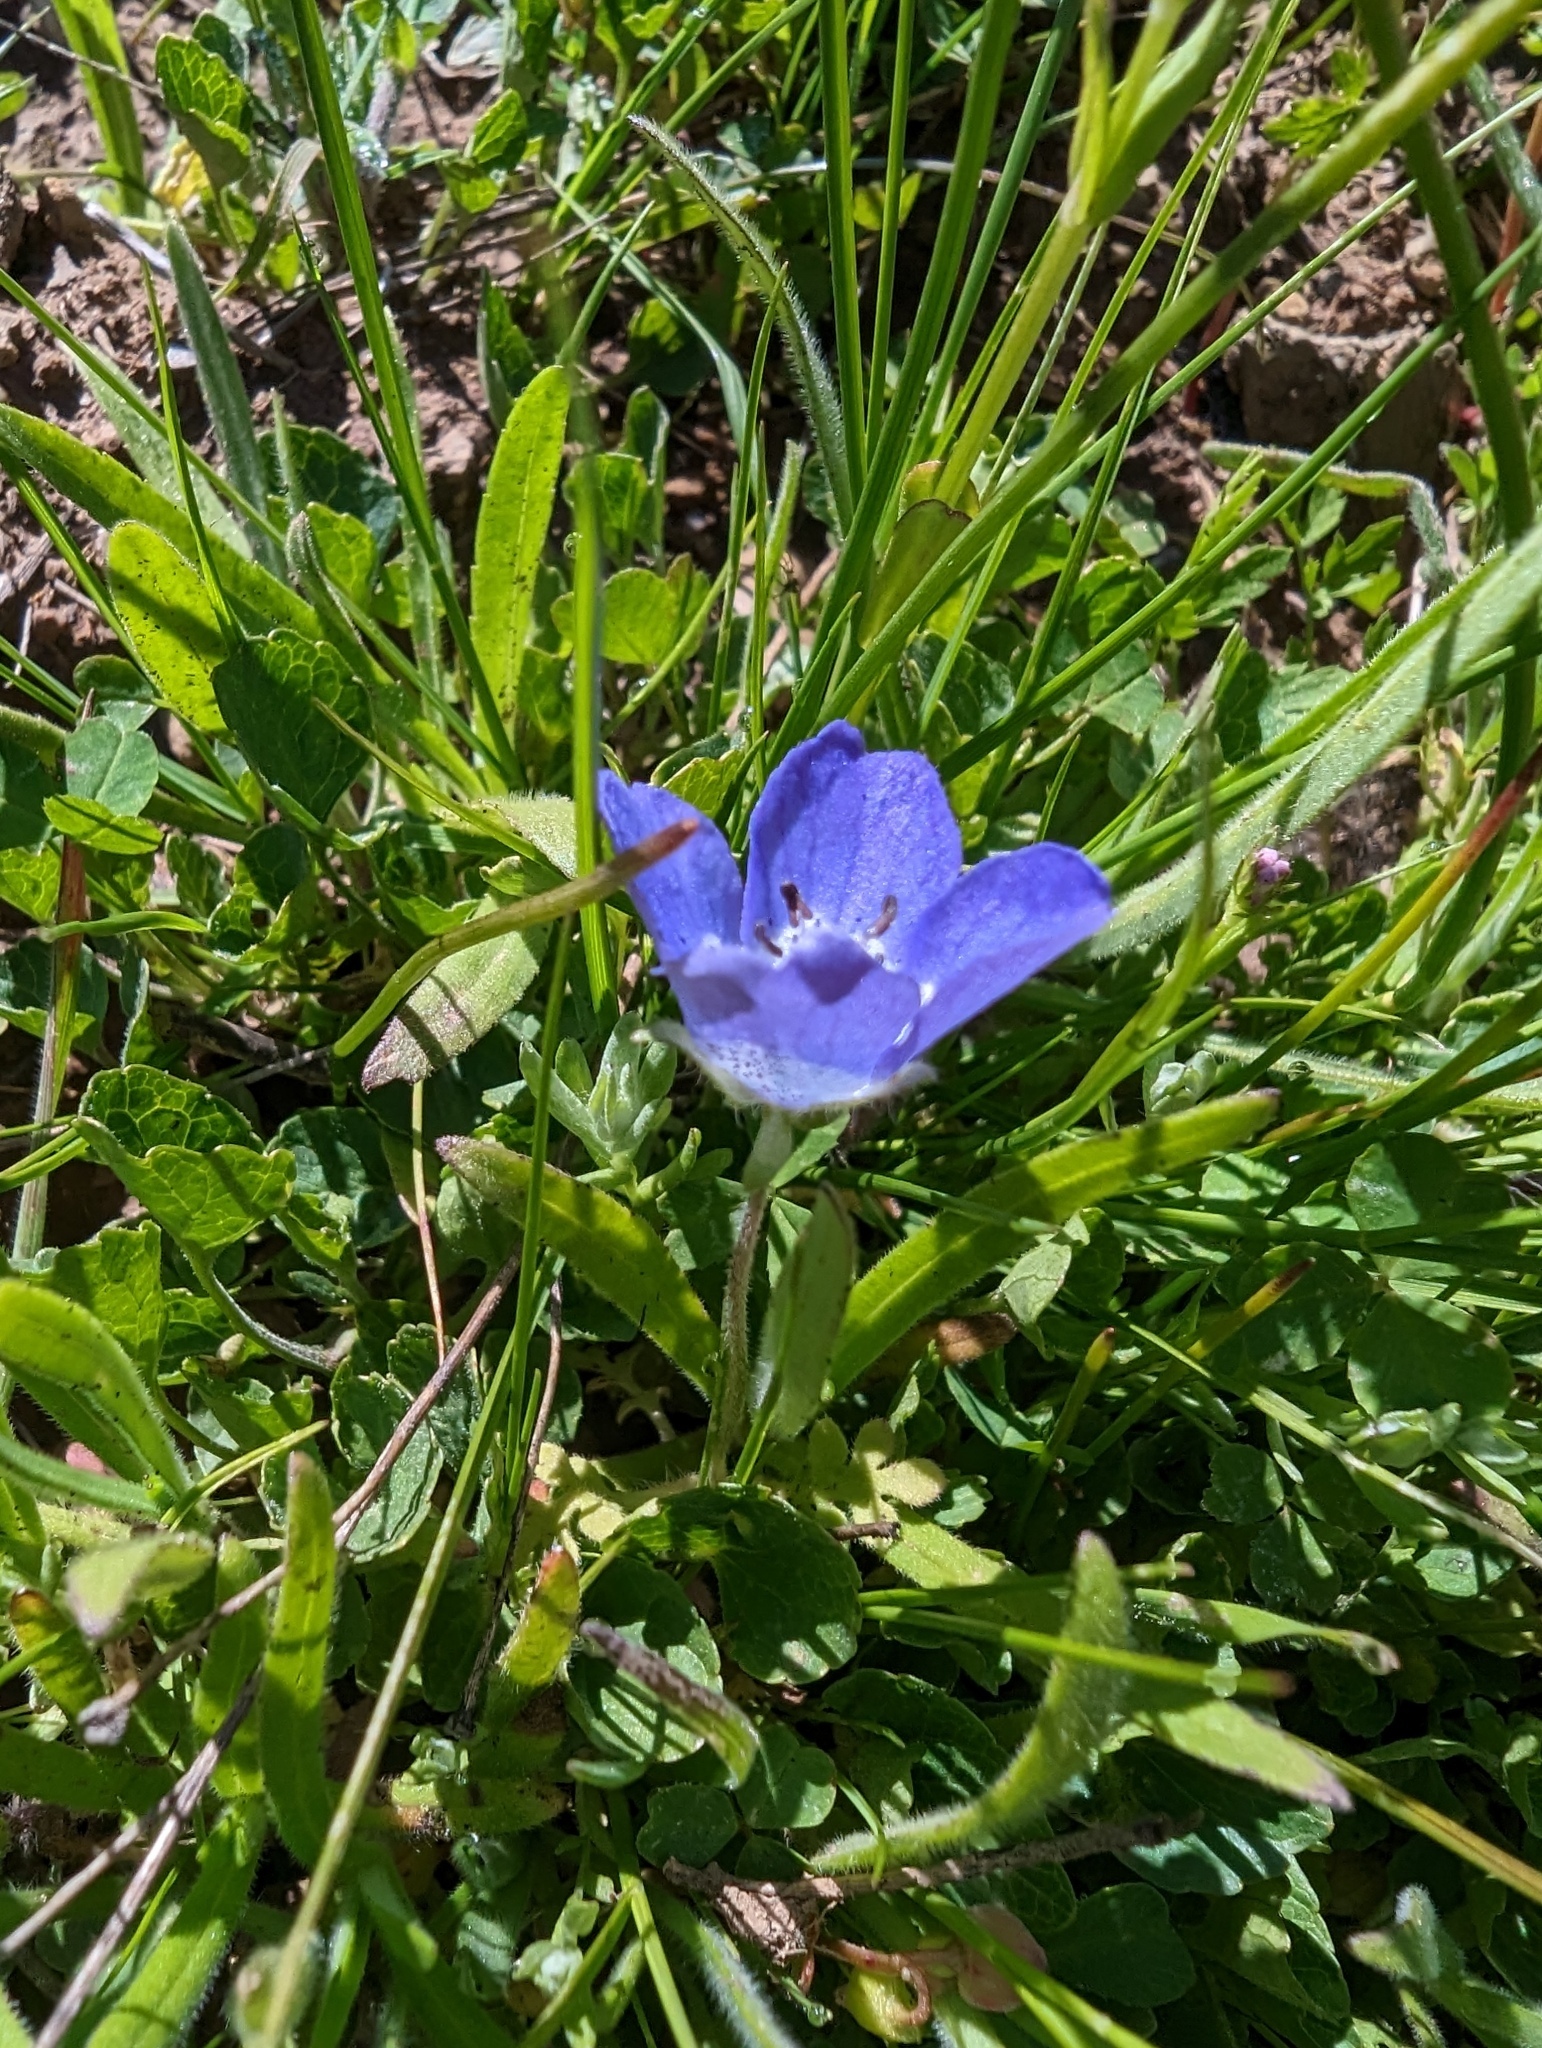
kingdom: Plantae
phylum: Tracheophyta
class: Magnoliopsida
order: Boraginales
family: Hydrophyllaceae
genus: Nemophila
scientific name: Nemophila menziesii
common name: Baby's-blue-eyes
